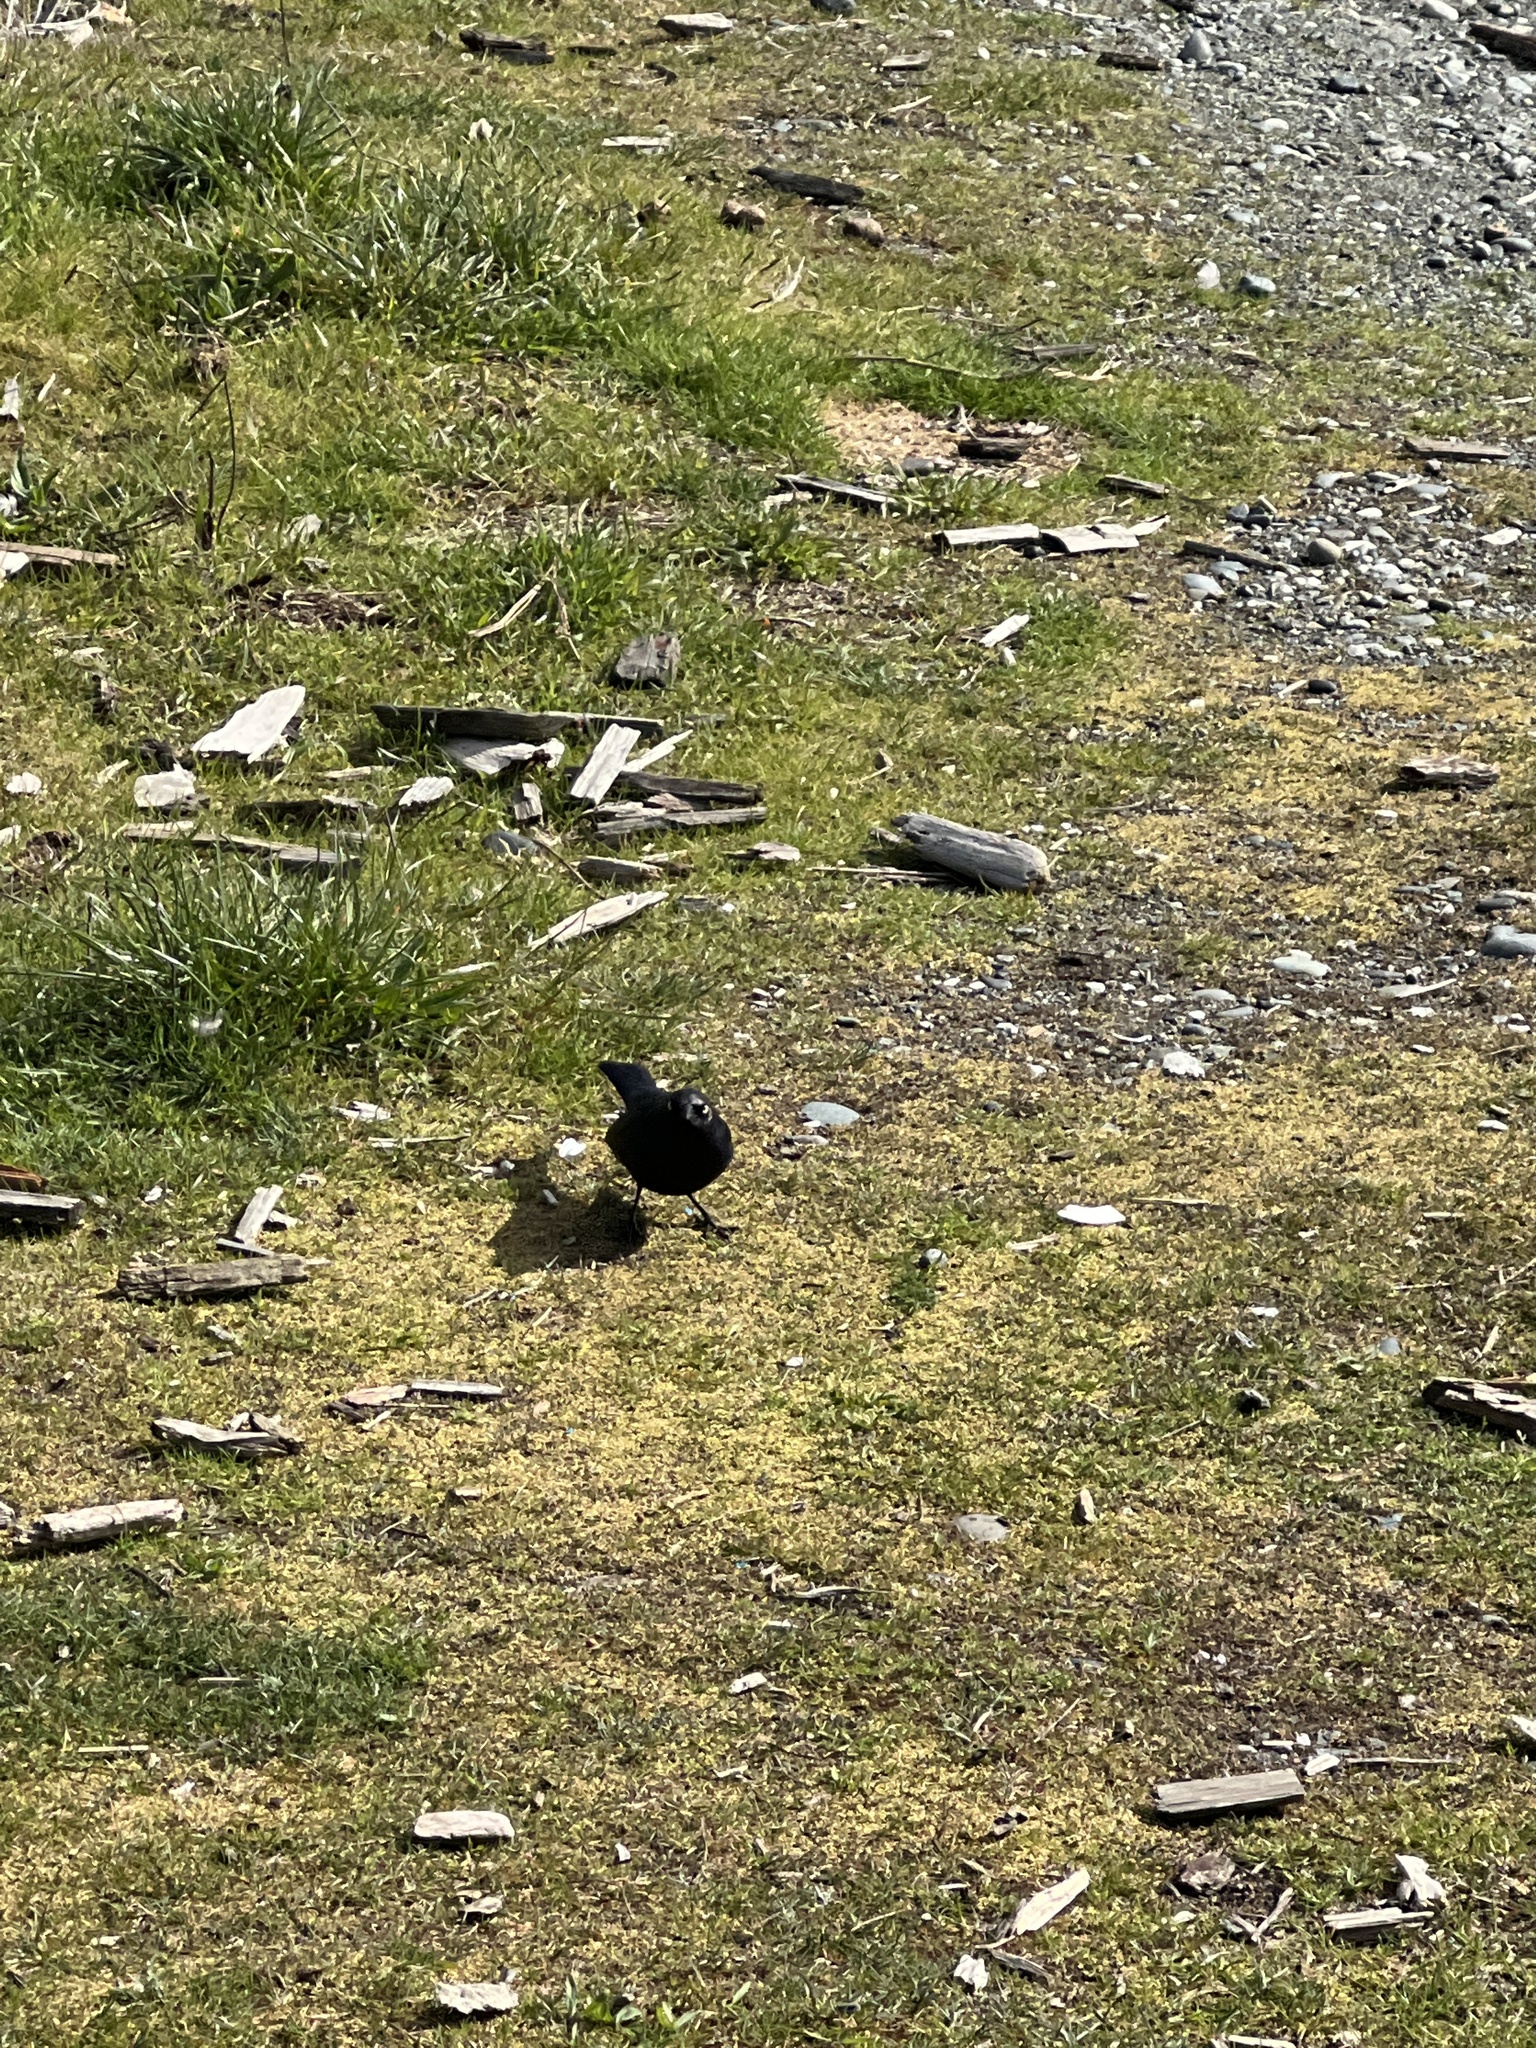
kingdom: Animalia
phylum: Chordata
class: Aves
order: Passeriformes
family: Icteridae
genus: Euphagus
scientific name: Euphagus cyanocephalus
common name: Brewer's blackbird
